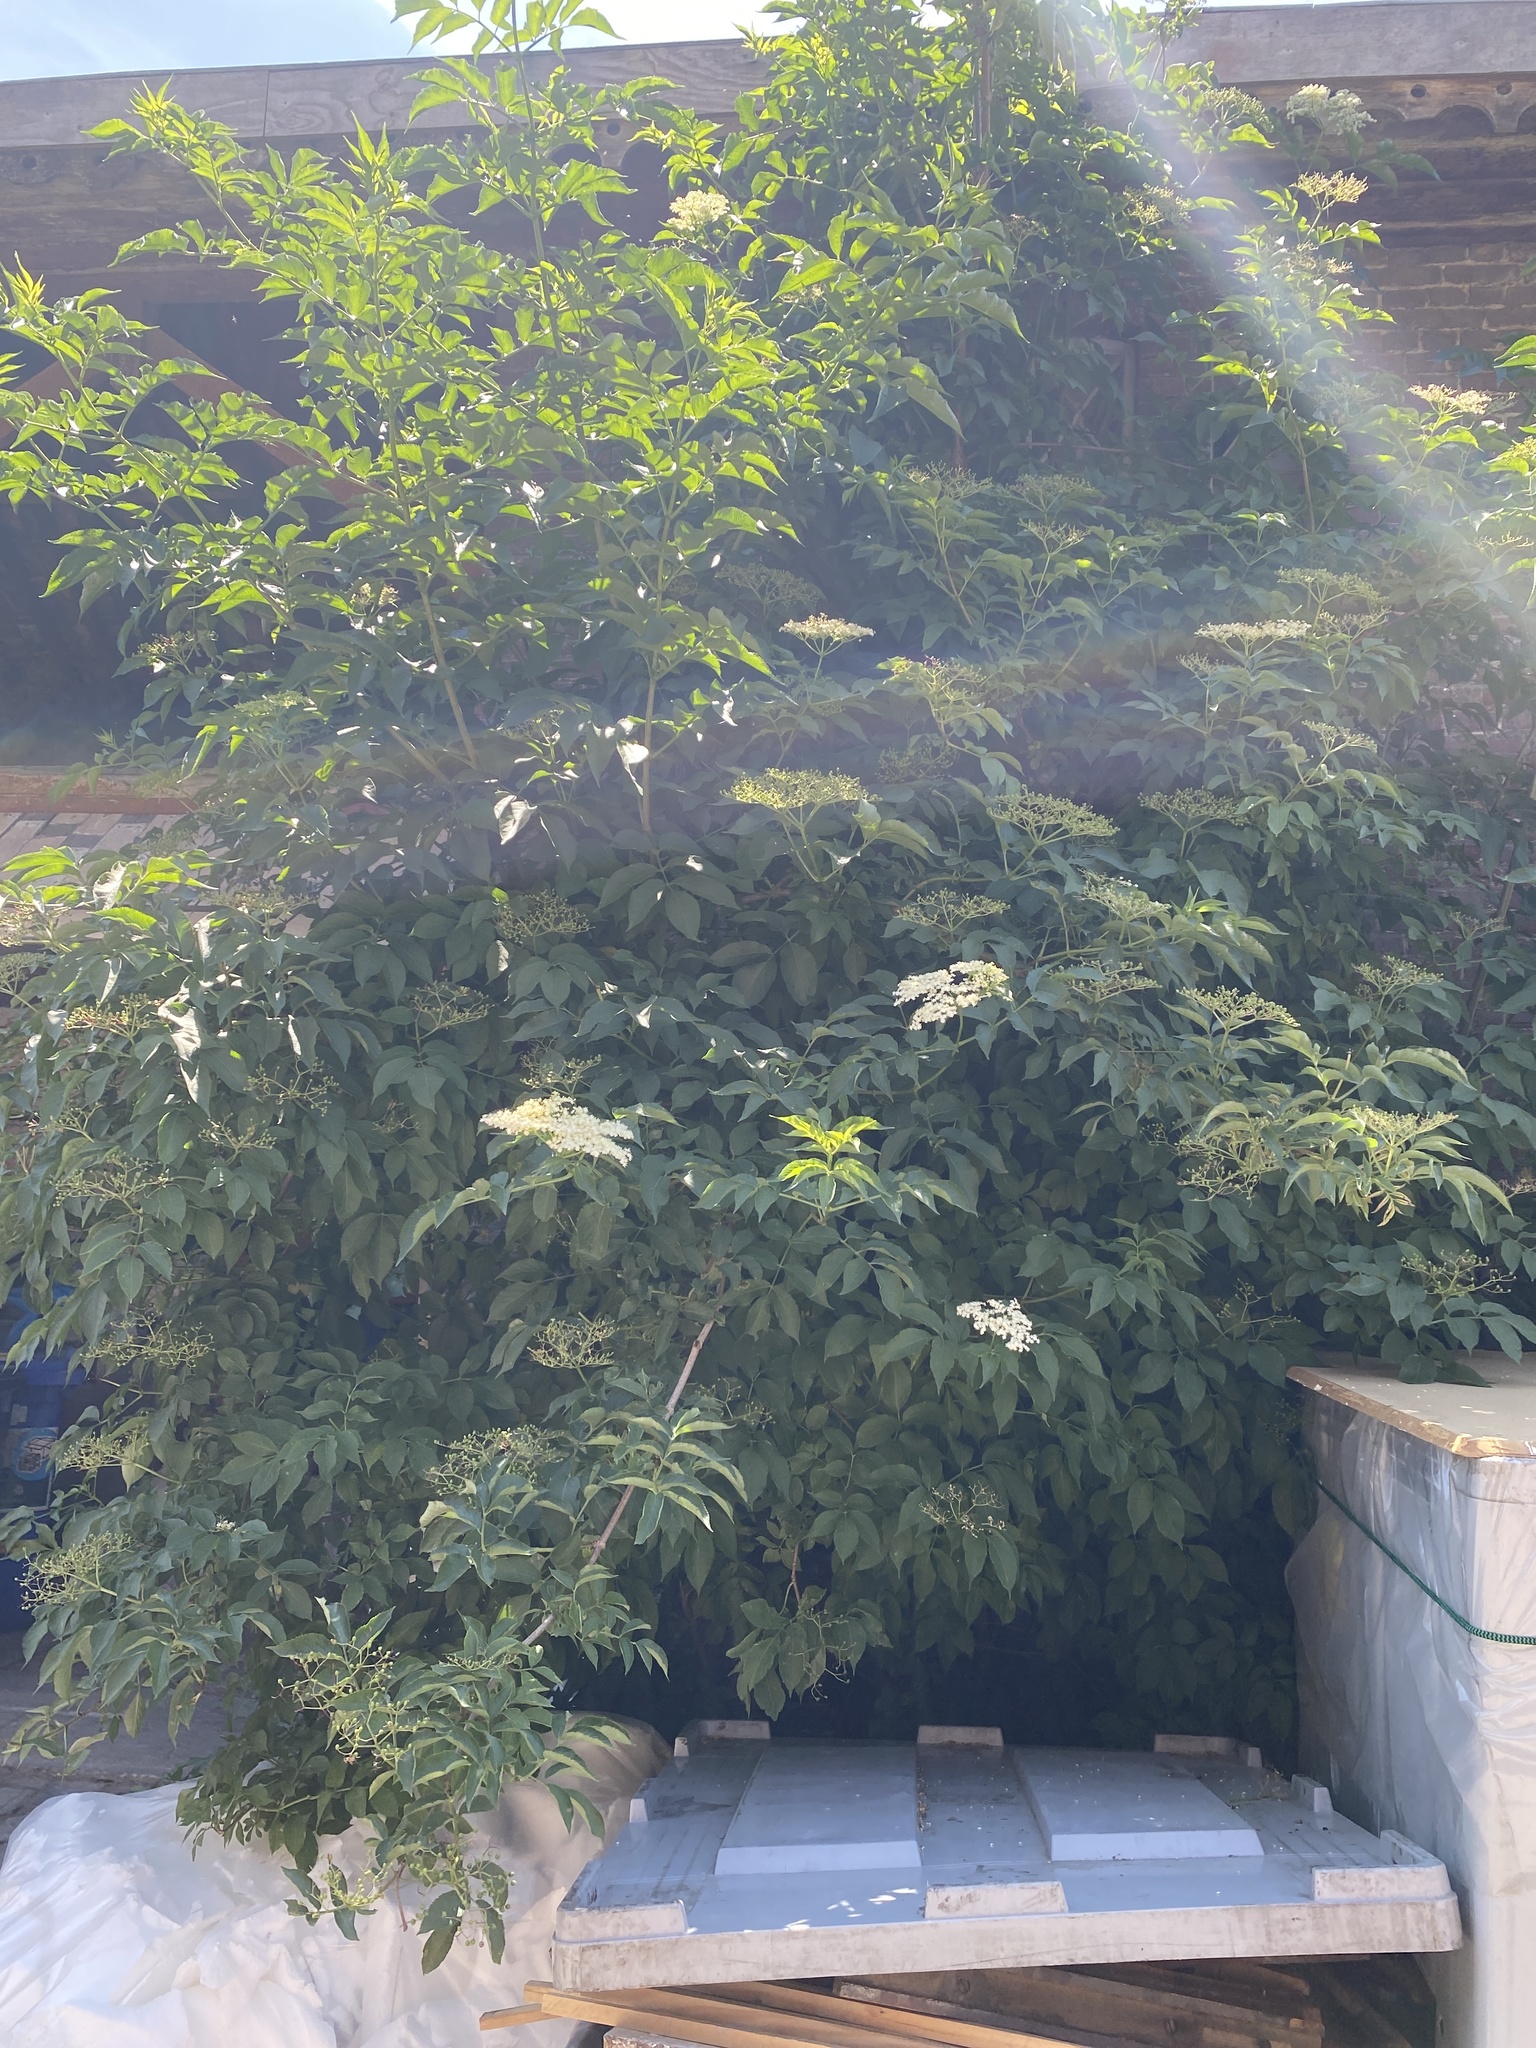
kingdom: Plantae
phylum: Tracheophyta
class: Magnoliopsida
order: Dipsacales
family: Viburnaceae
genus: Sambucus
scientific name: Sambucus nigra
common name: Elder
